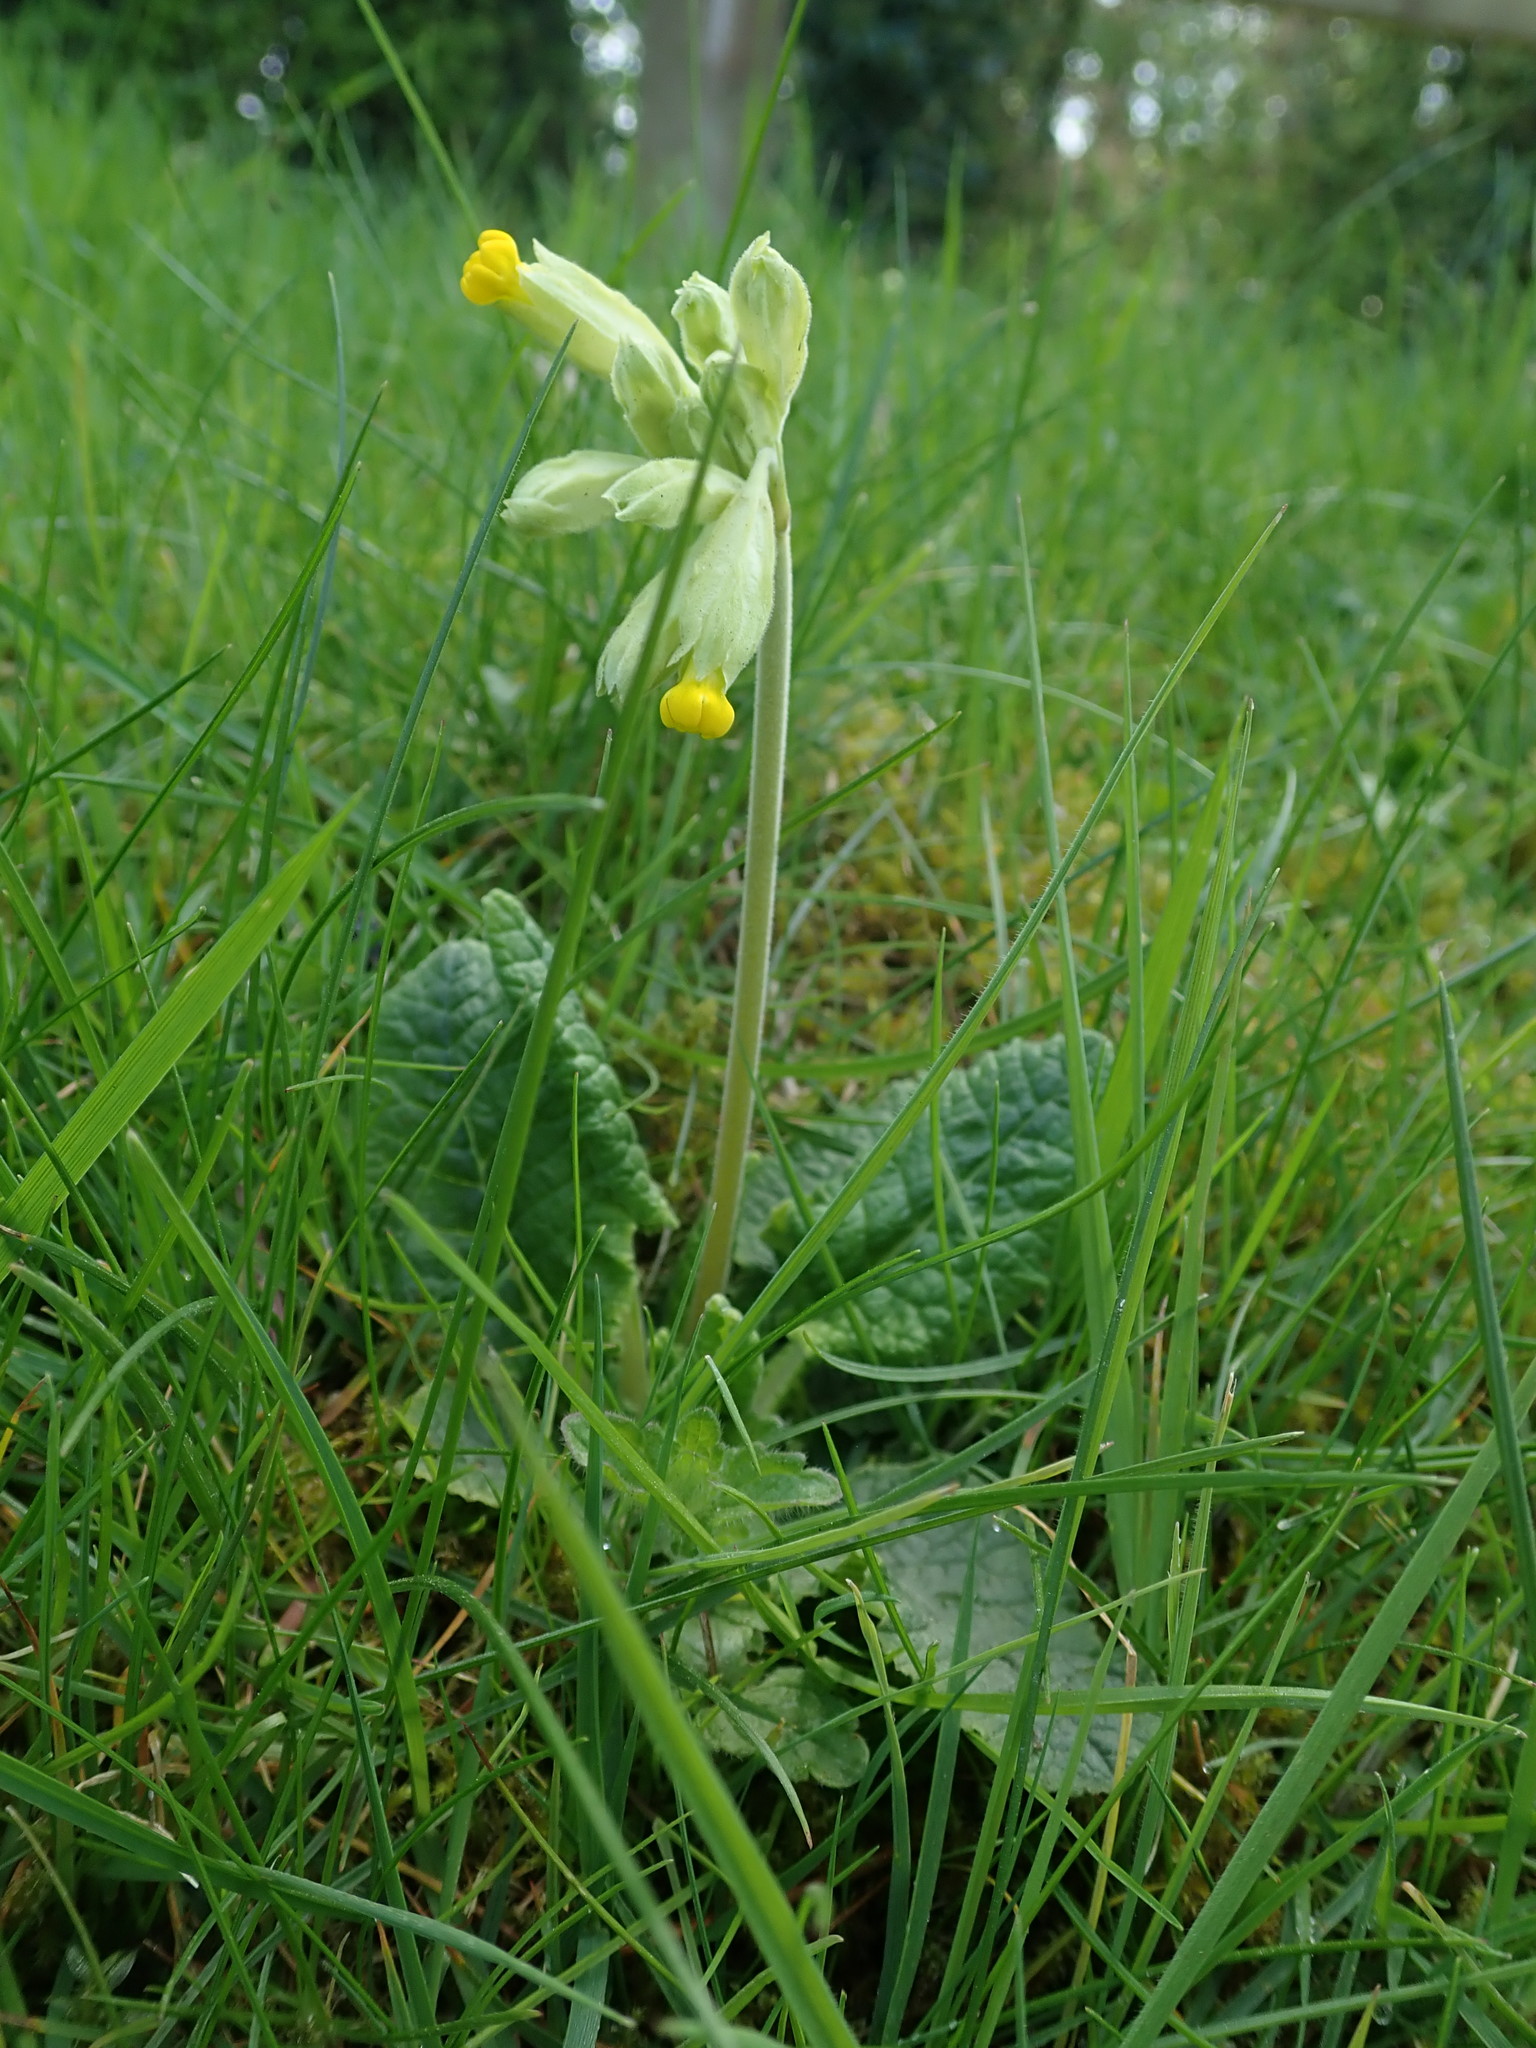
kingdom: Plantae
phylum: Tracheophyta
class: Magnoliopsida
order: Ericales
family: Primulaceae
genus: Primula
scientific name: Primula veris
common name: Cowslip
